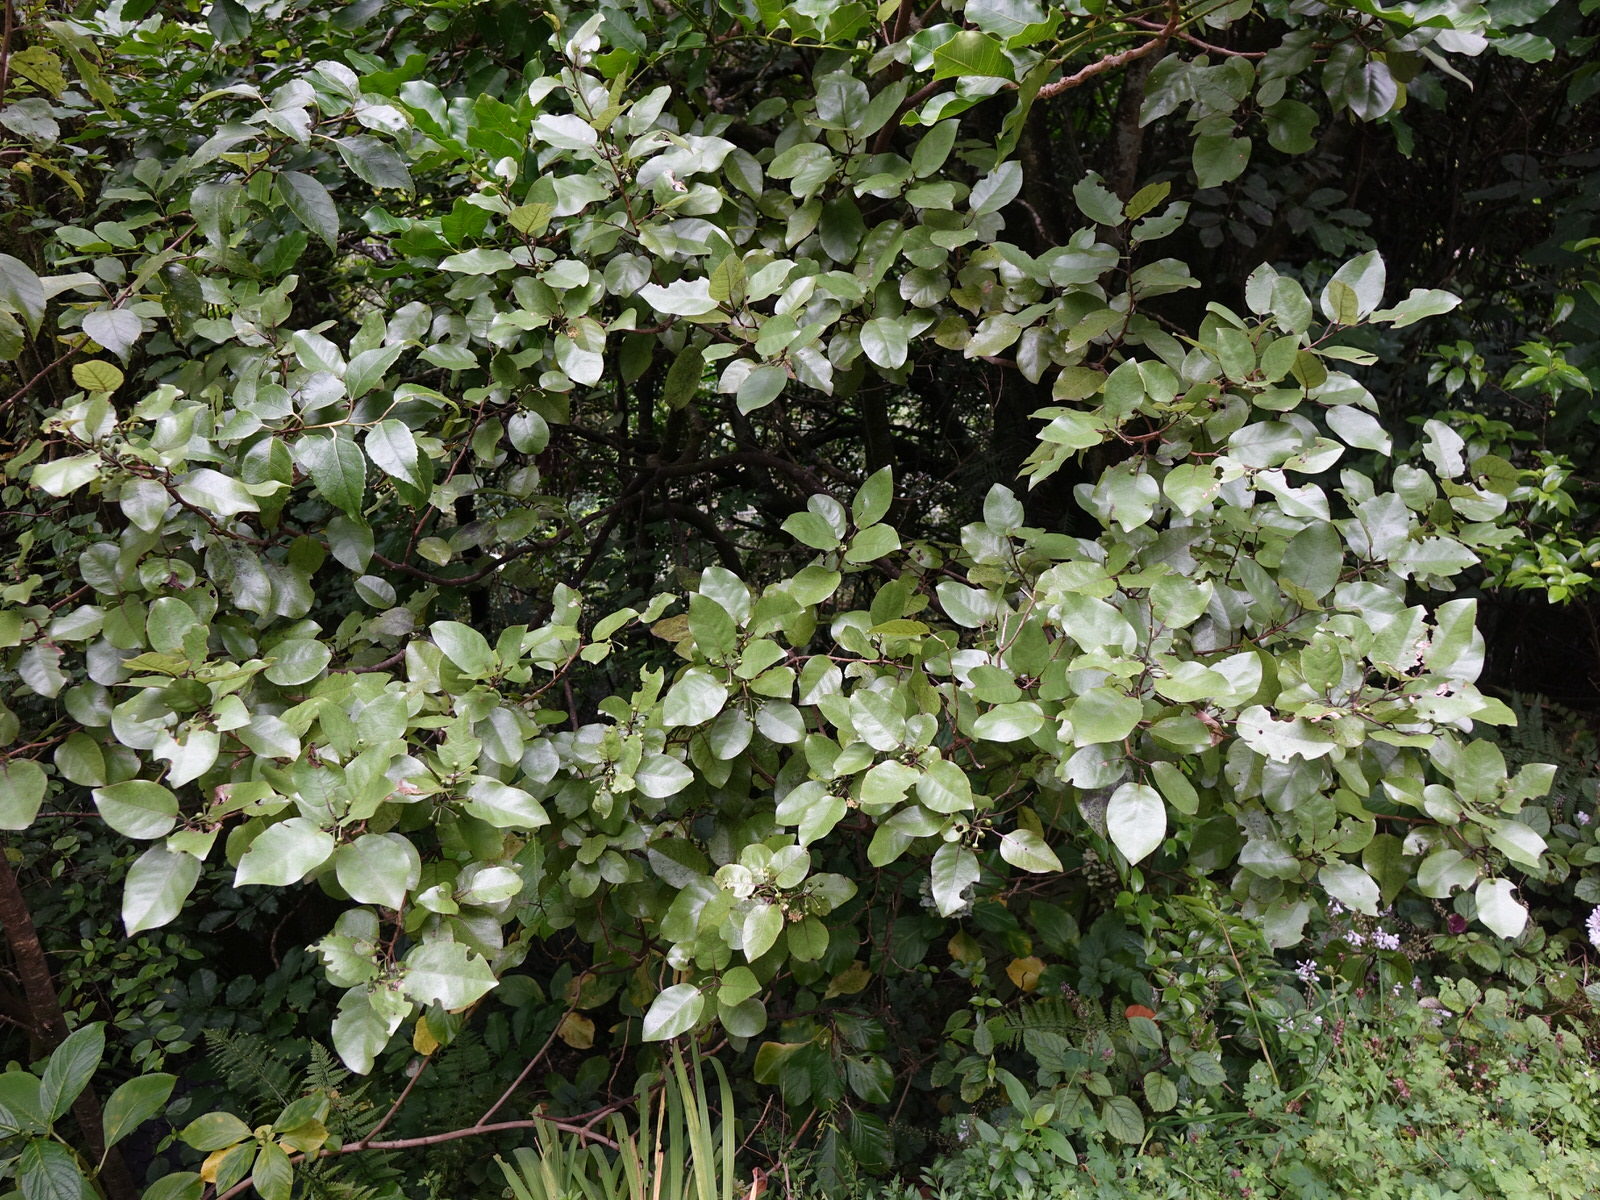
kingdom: Plantae
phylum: Tracheophyta
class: Magnoliopsida
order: Laurales
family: Lauraceae
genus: Litsea
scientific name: Litsea calicaris
